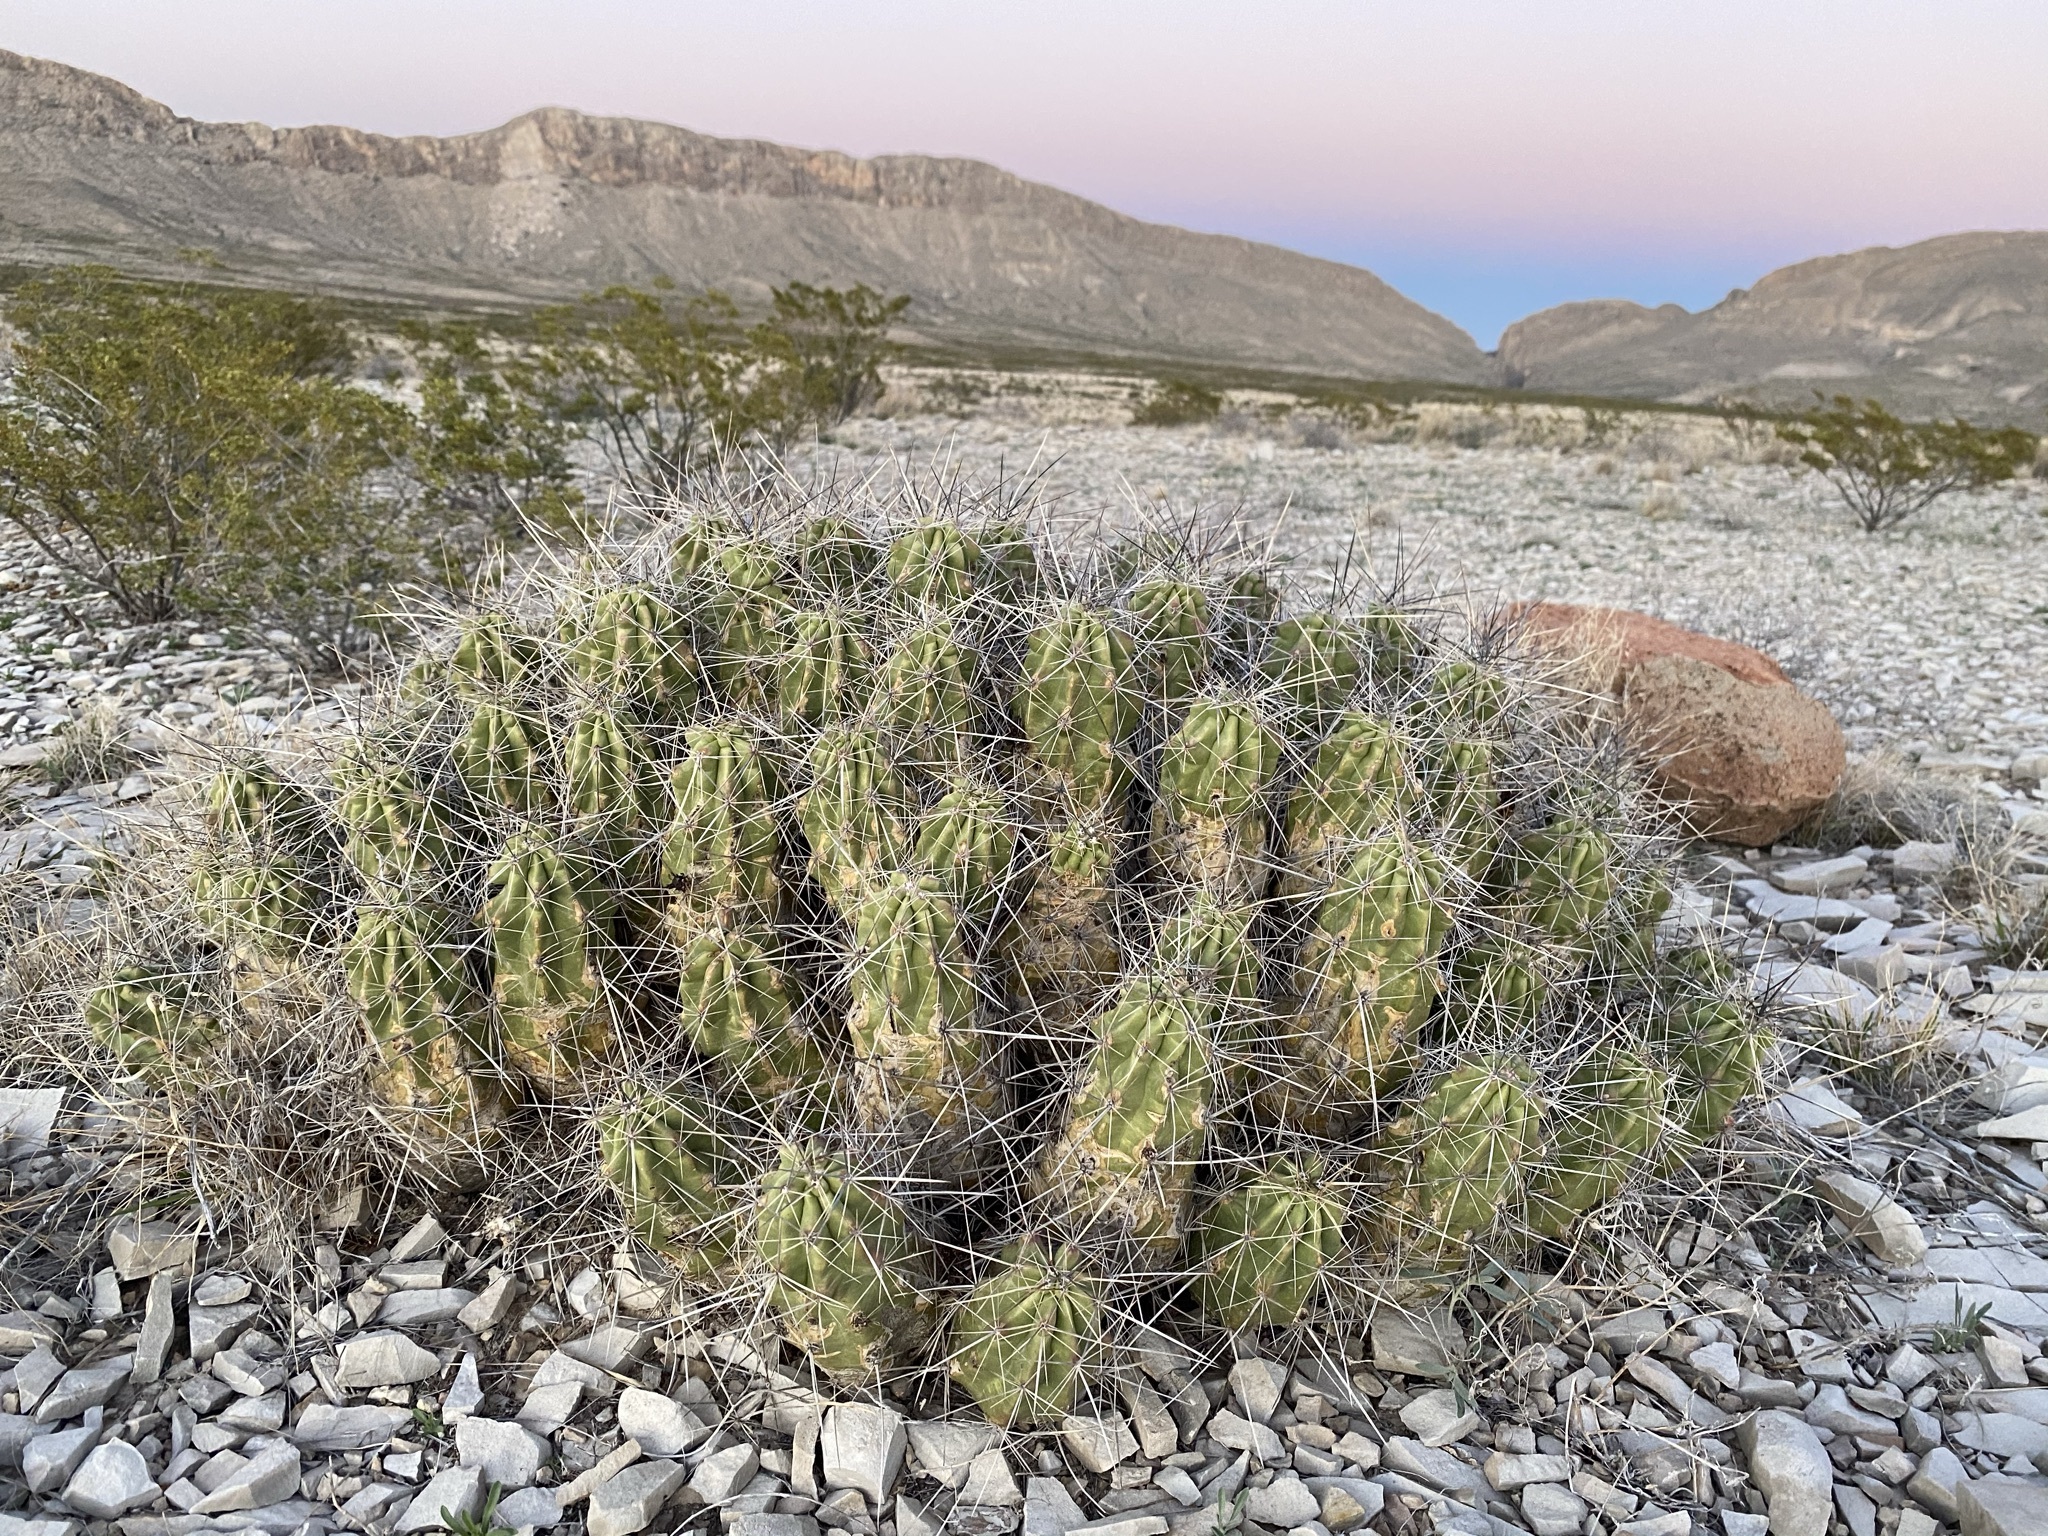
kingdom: Plantae
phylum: Tracheophyta
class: Magnoliopsida
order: Caryophyllales
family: Cactaceae
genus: Echinocereus
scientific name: Echinocereus enneacanthus
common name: Pitaya
